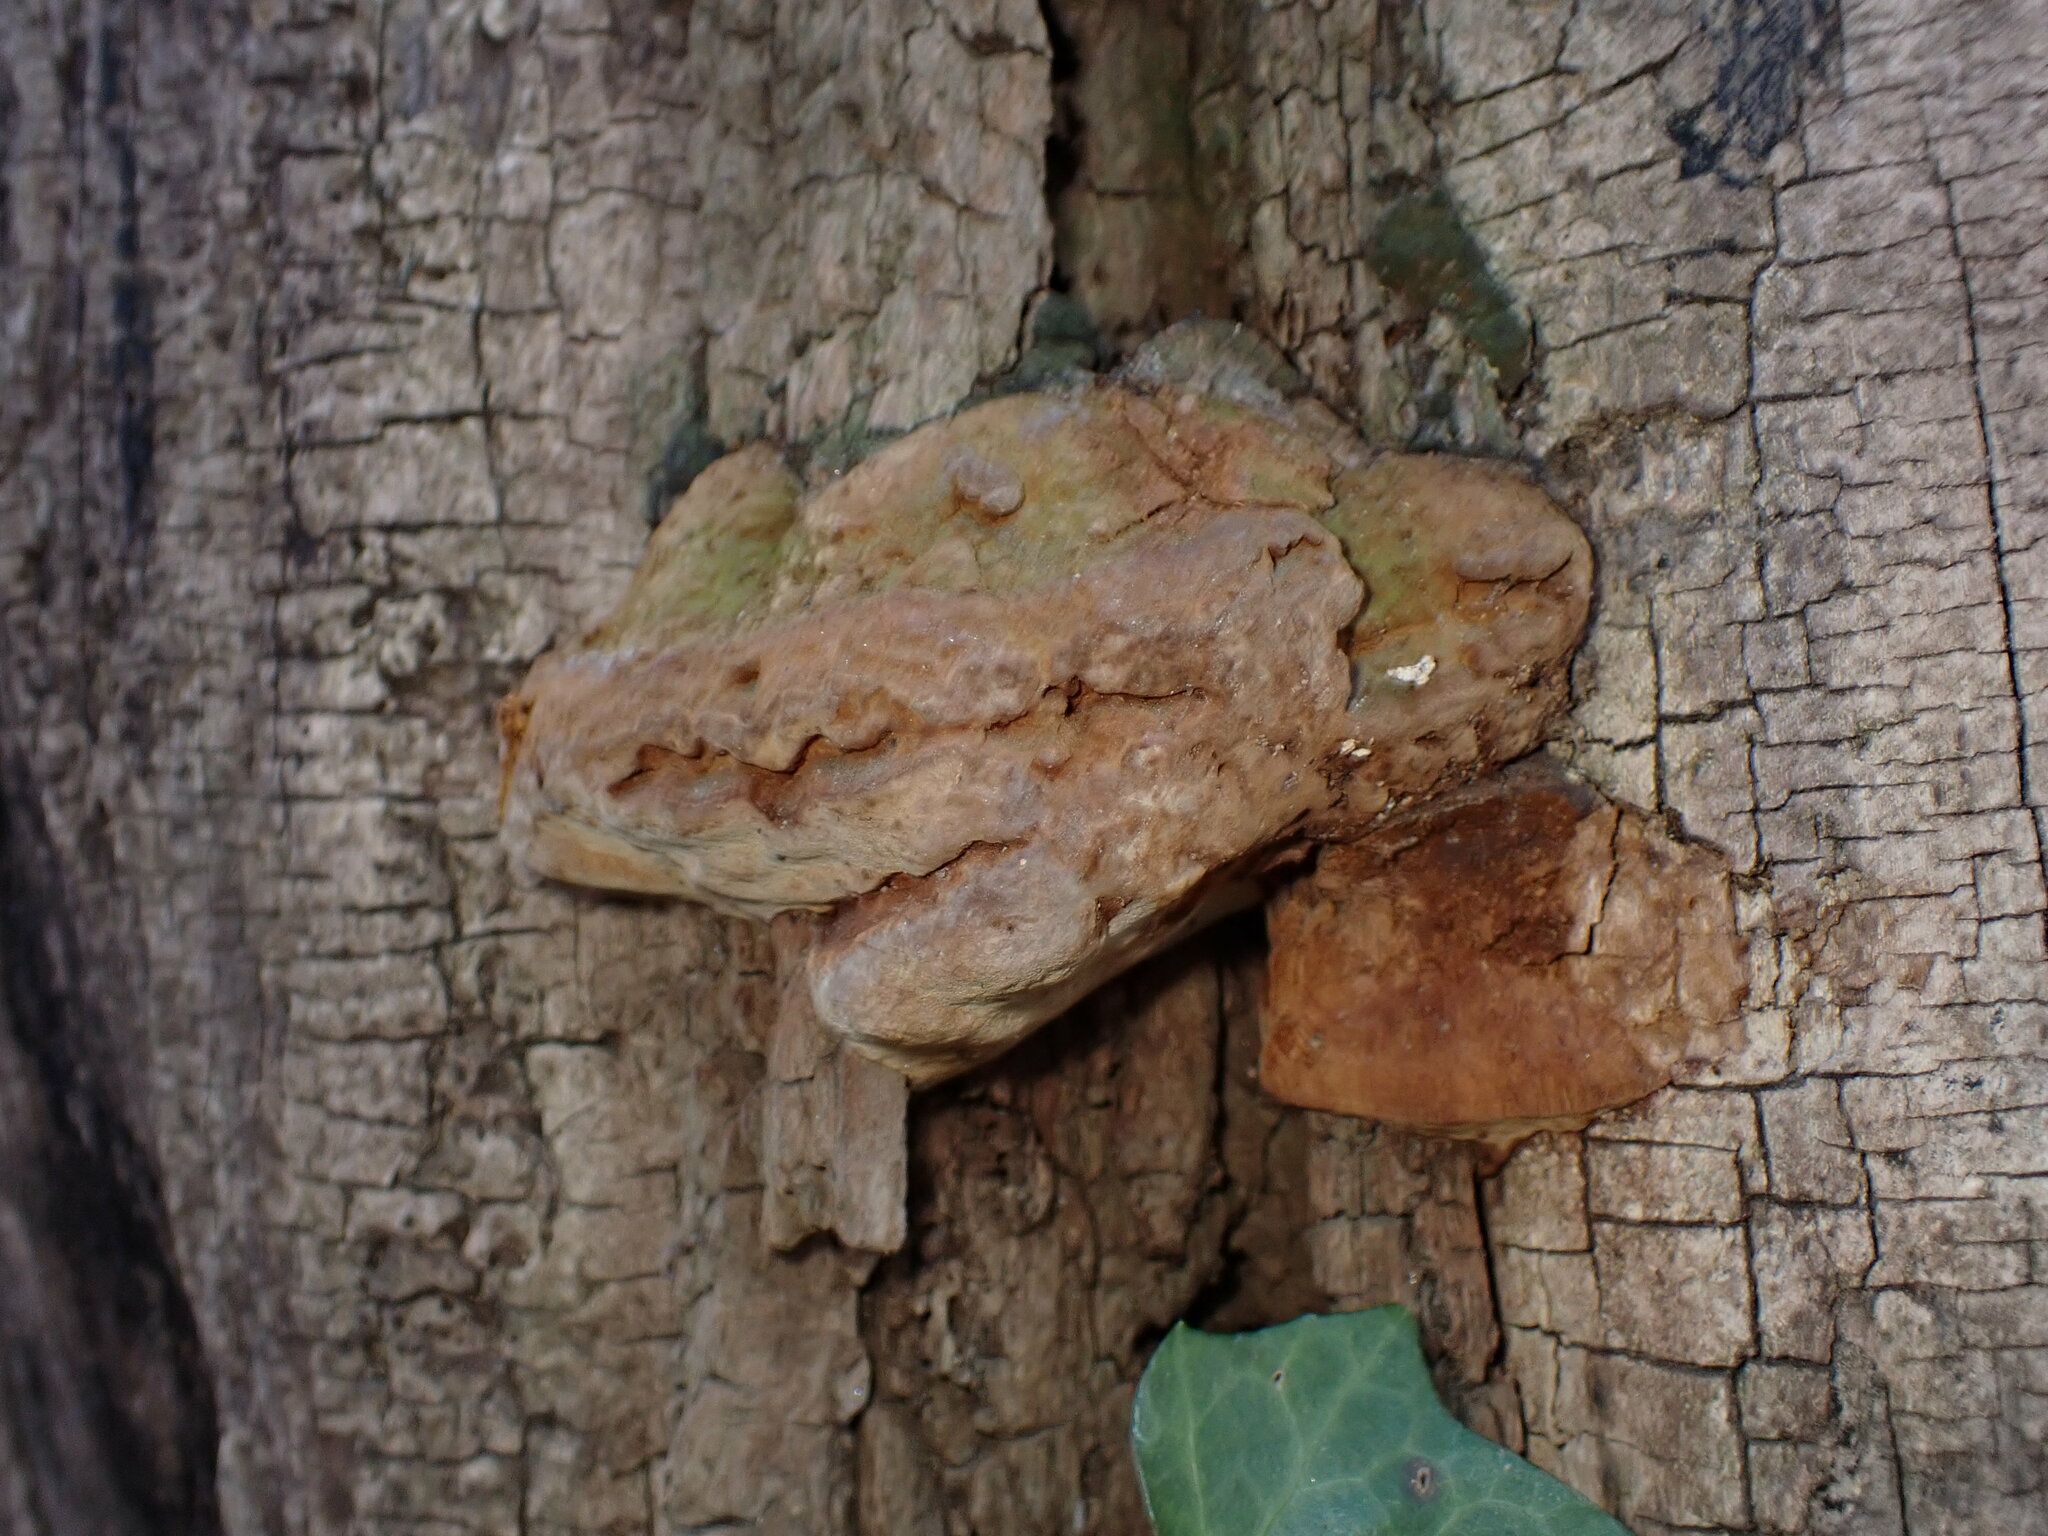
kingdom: Fungi
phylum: Basidiomycota
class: Agaricomycetes
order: Hymenochaetales
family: Hymenochaetaceae
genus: Phellinus
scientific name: Phellinus robiniae
